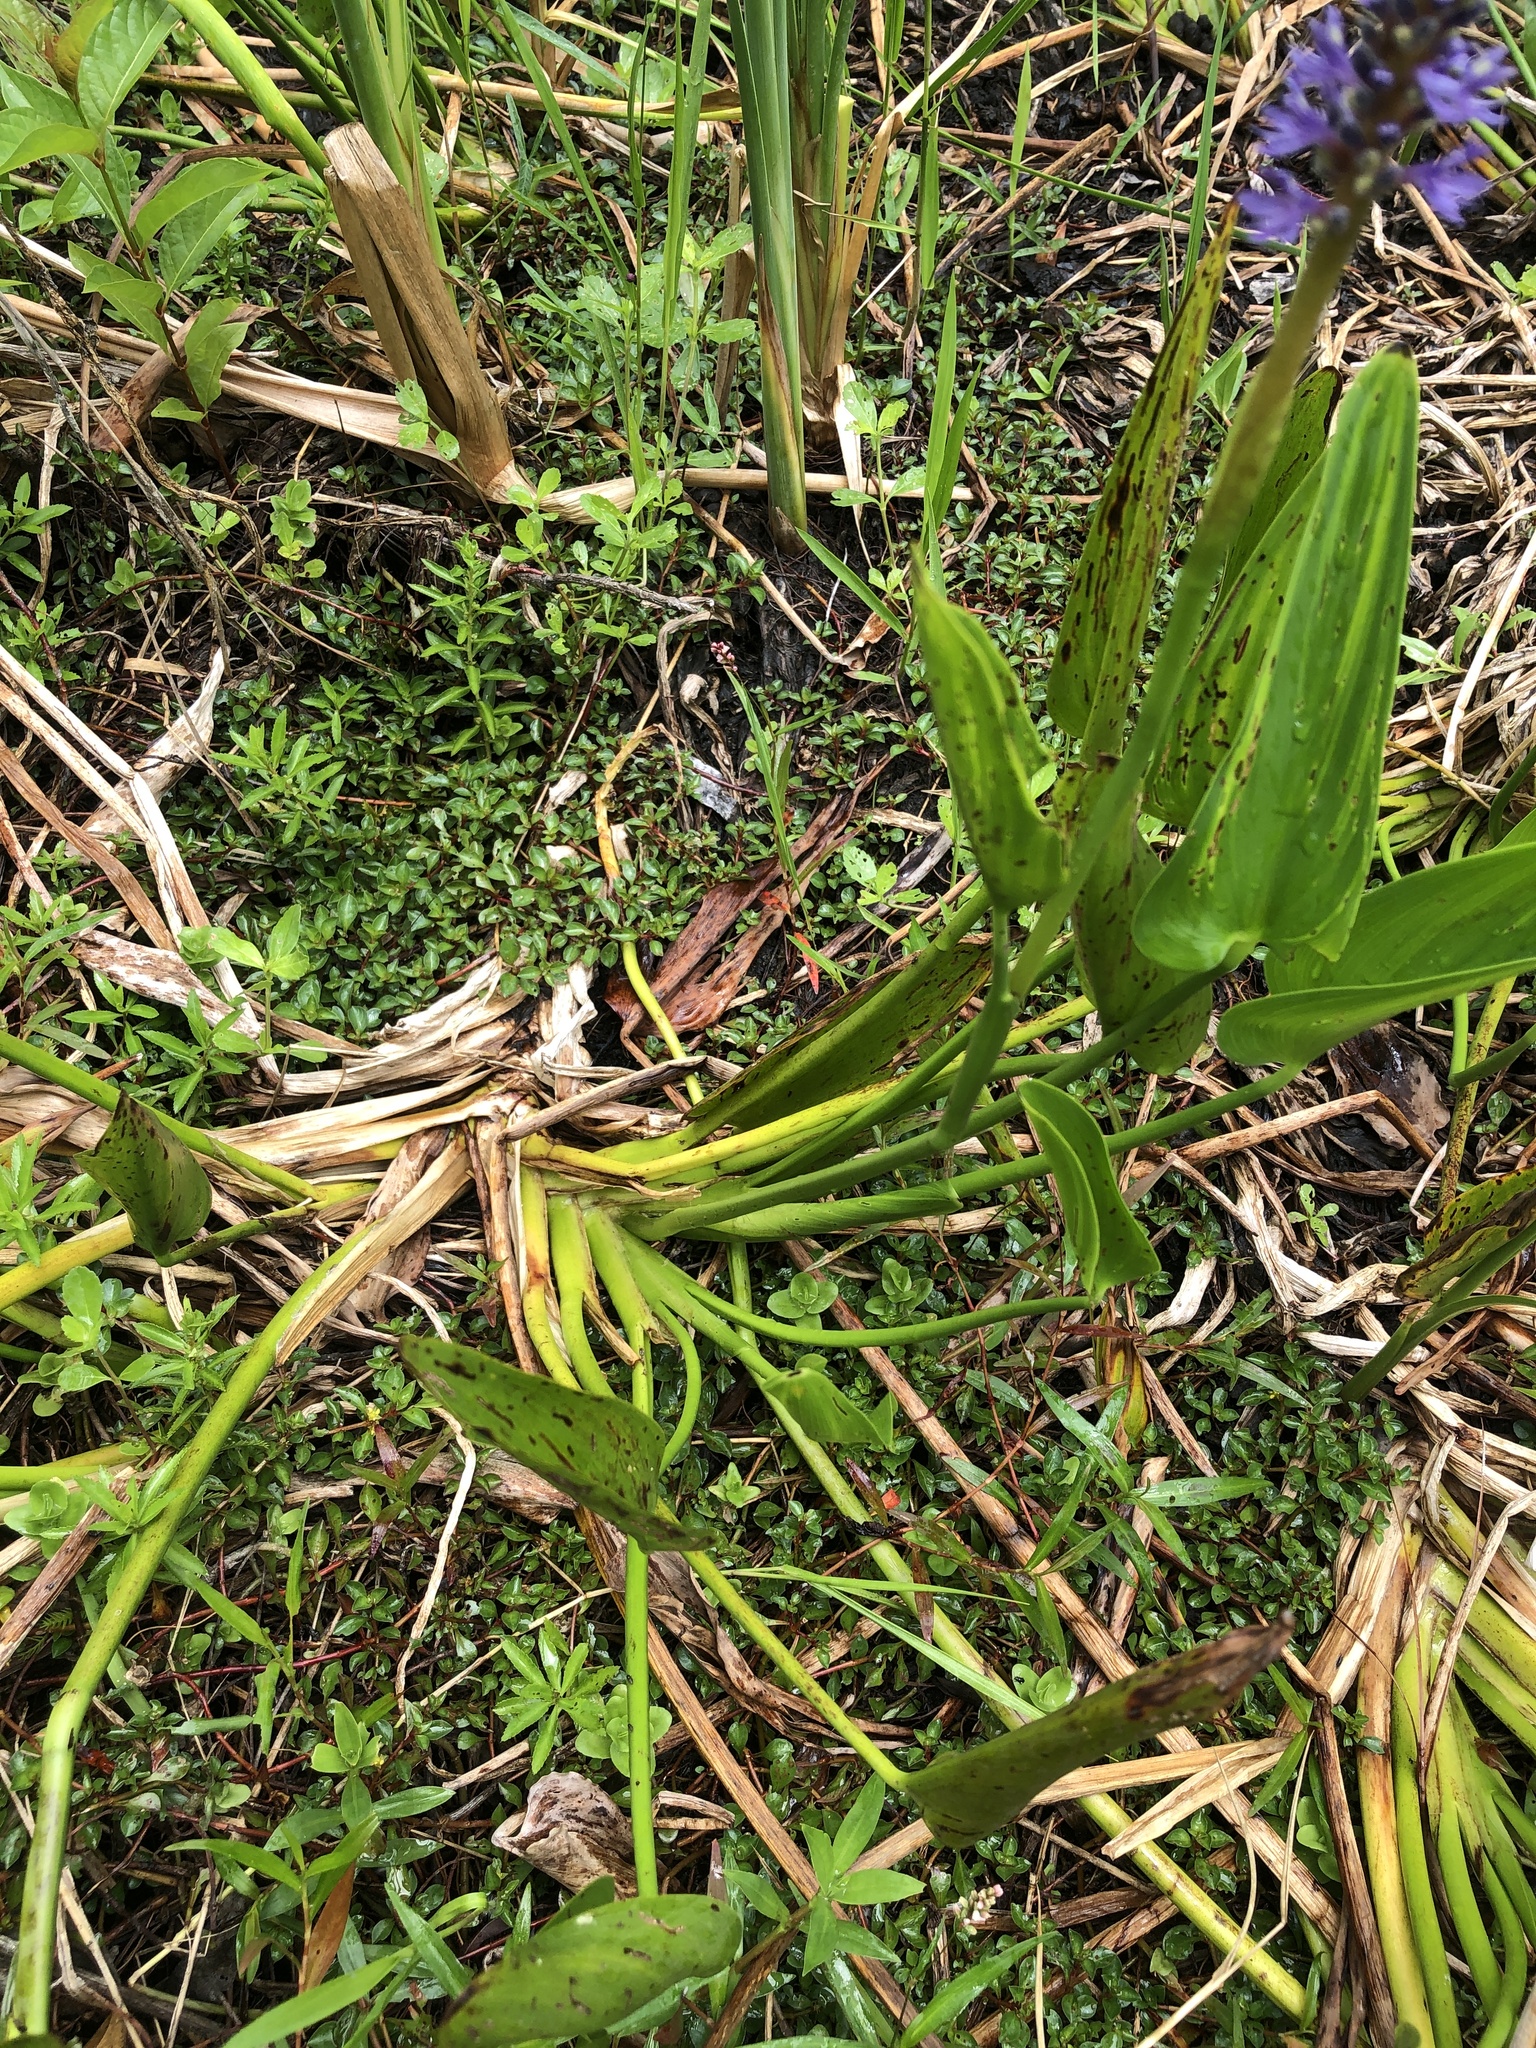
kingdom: Plantae
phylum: Tracheophyta
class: Liliopsida
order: Commelinales
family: Pontederiaceae
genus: Pontederia
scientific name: Pontederia cordata
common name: Pickerelweed
